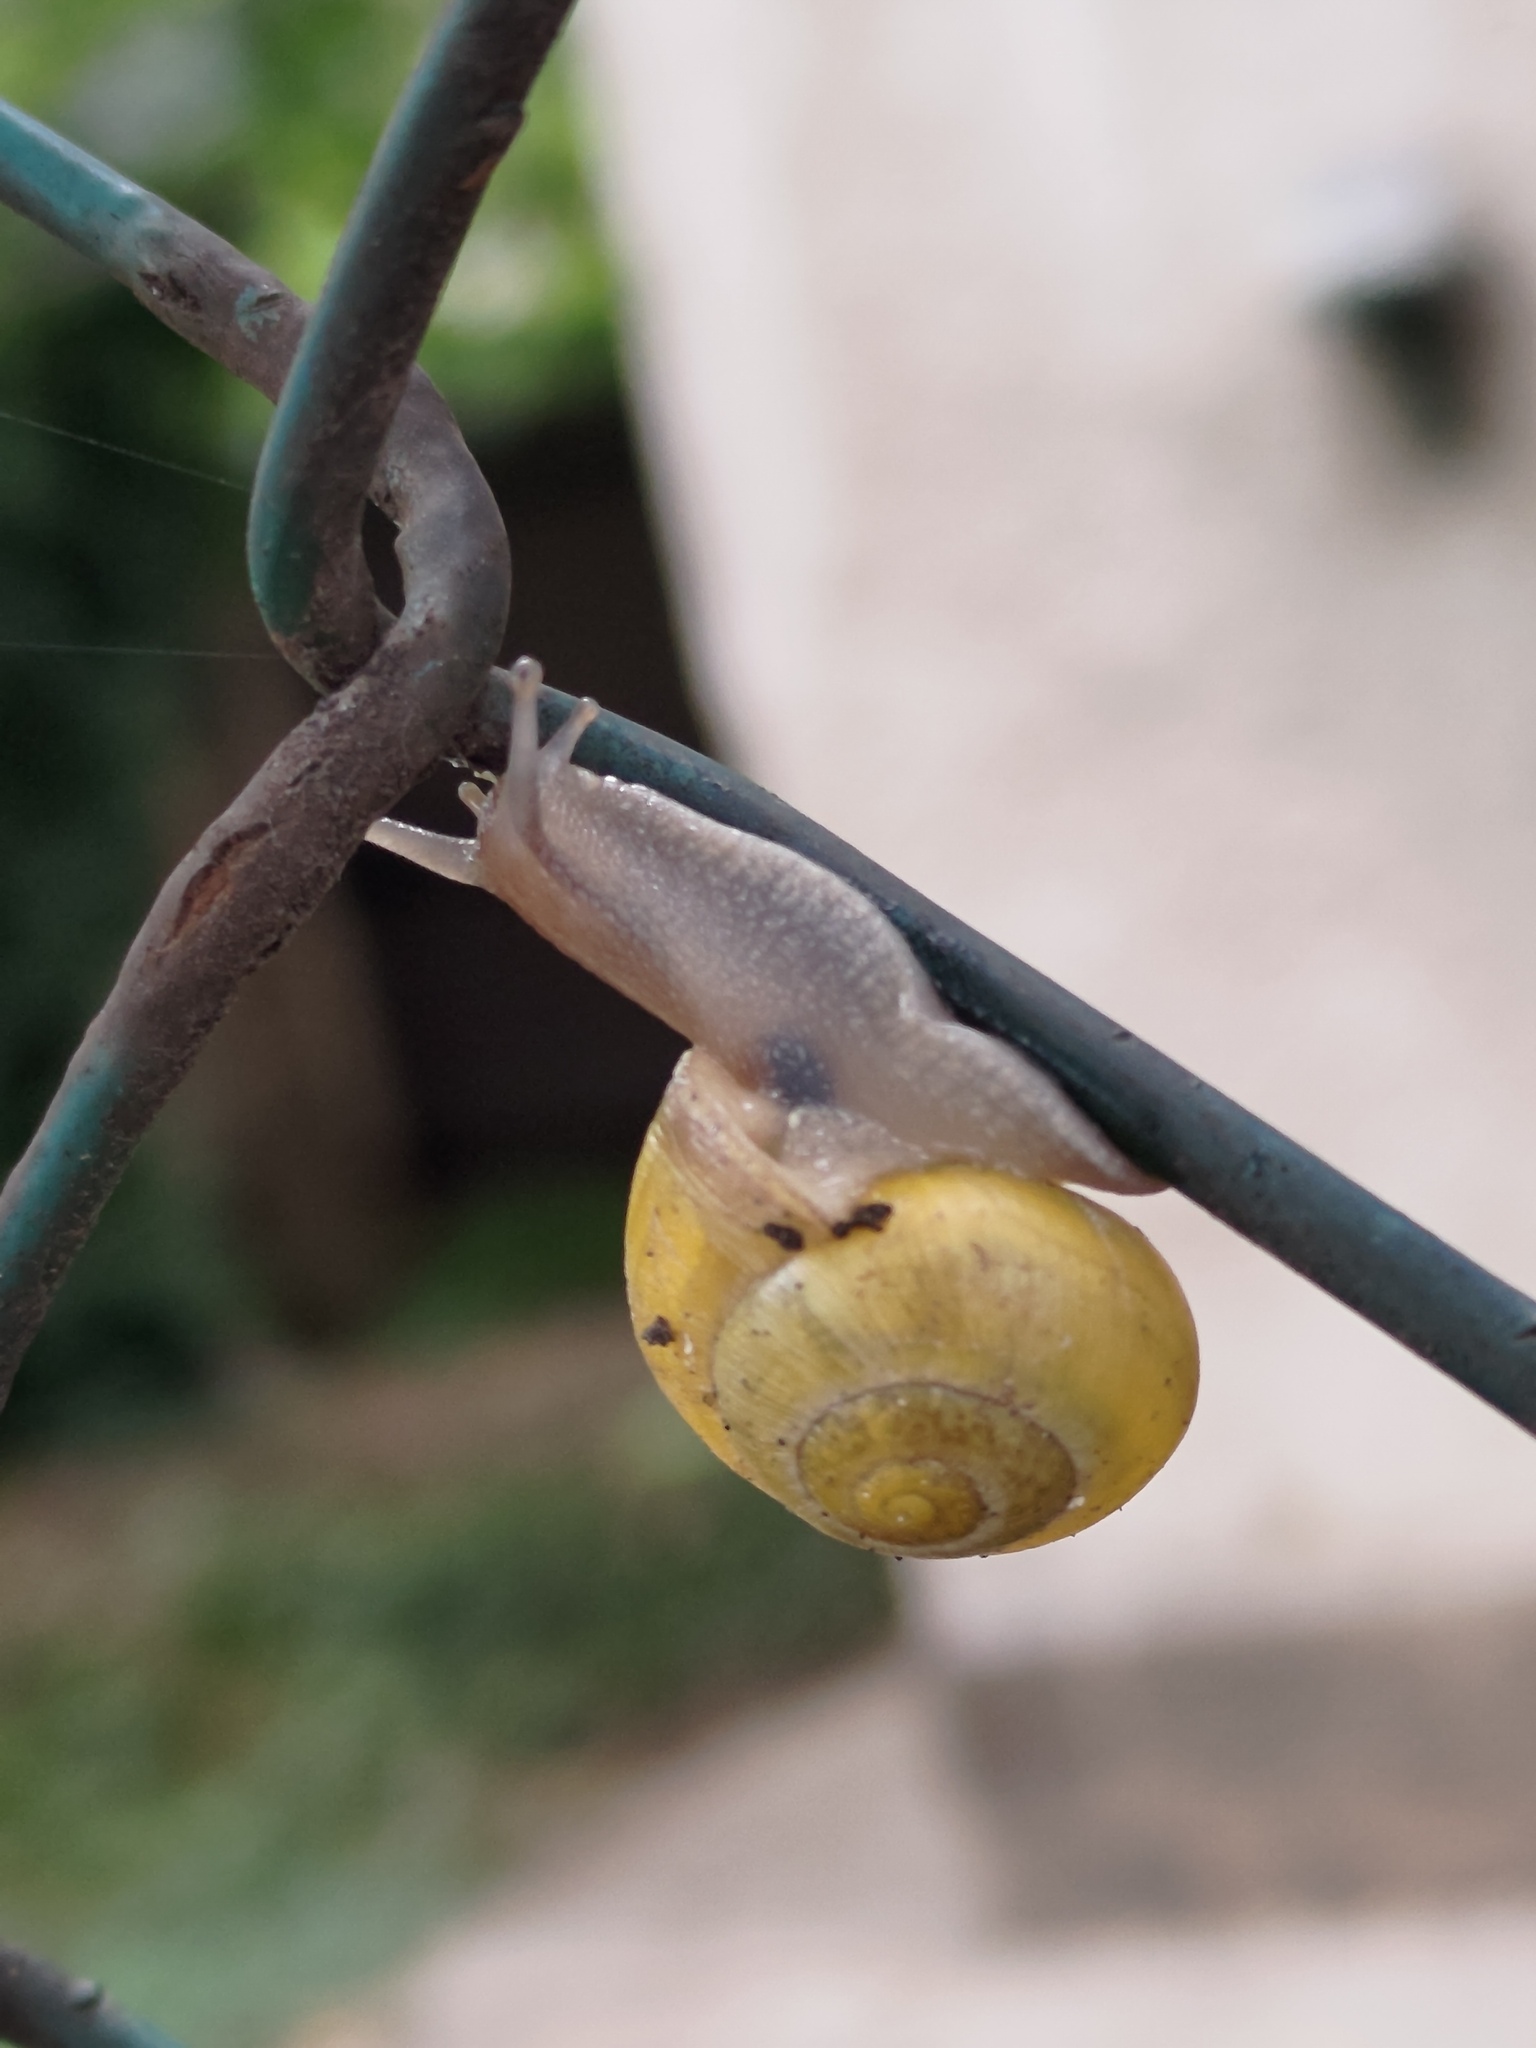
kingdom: Animalia
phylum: Mollusca
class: Gastropoda
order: Stylommatophora
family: Helicidae
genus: Cepaea
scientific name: Cepaea hortensis
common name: White-lip gardensnail
